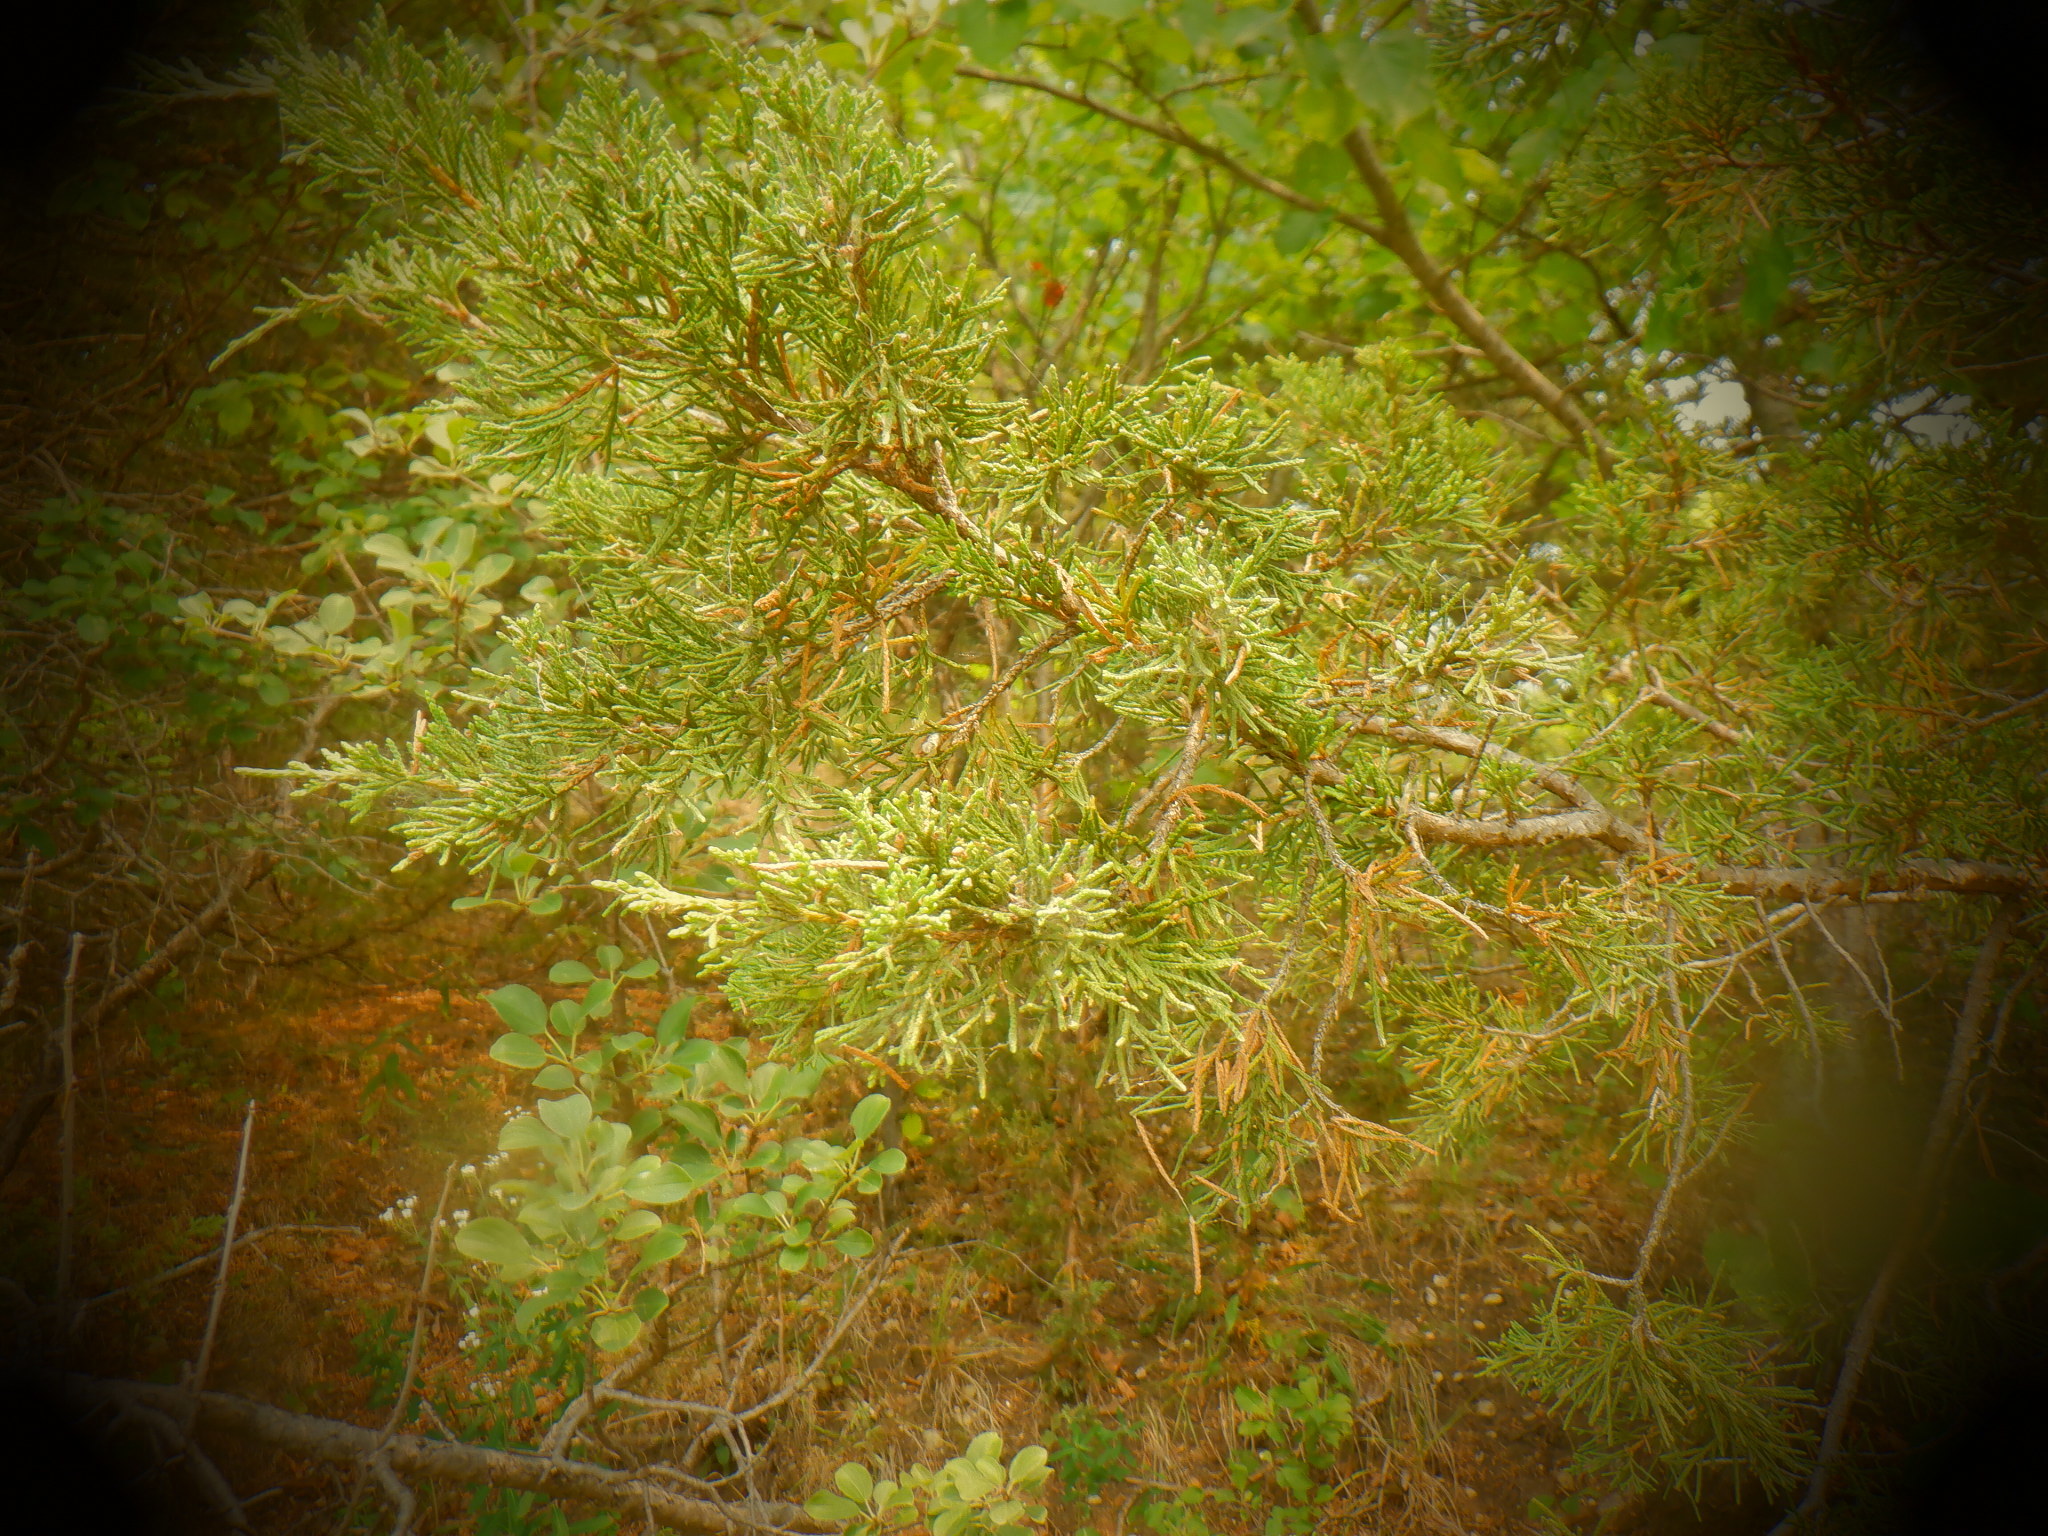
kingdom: Plantae
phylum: Tracheophyta
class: Pinopsida
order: Pinales
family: Cupressaceae
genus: Juniperus
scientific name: Juniperus virginiana
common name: Red juniper
